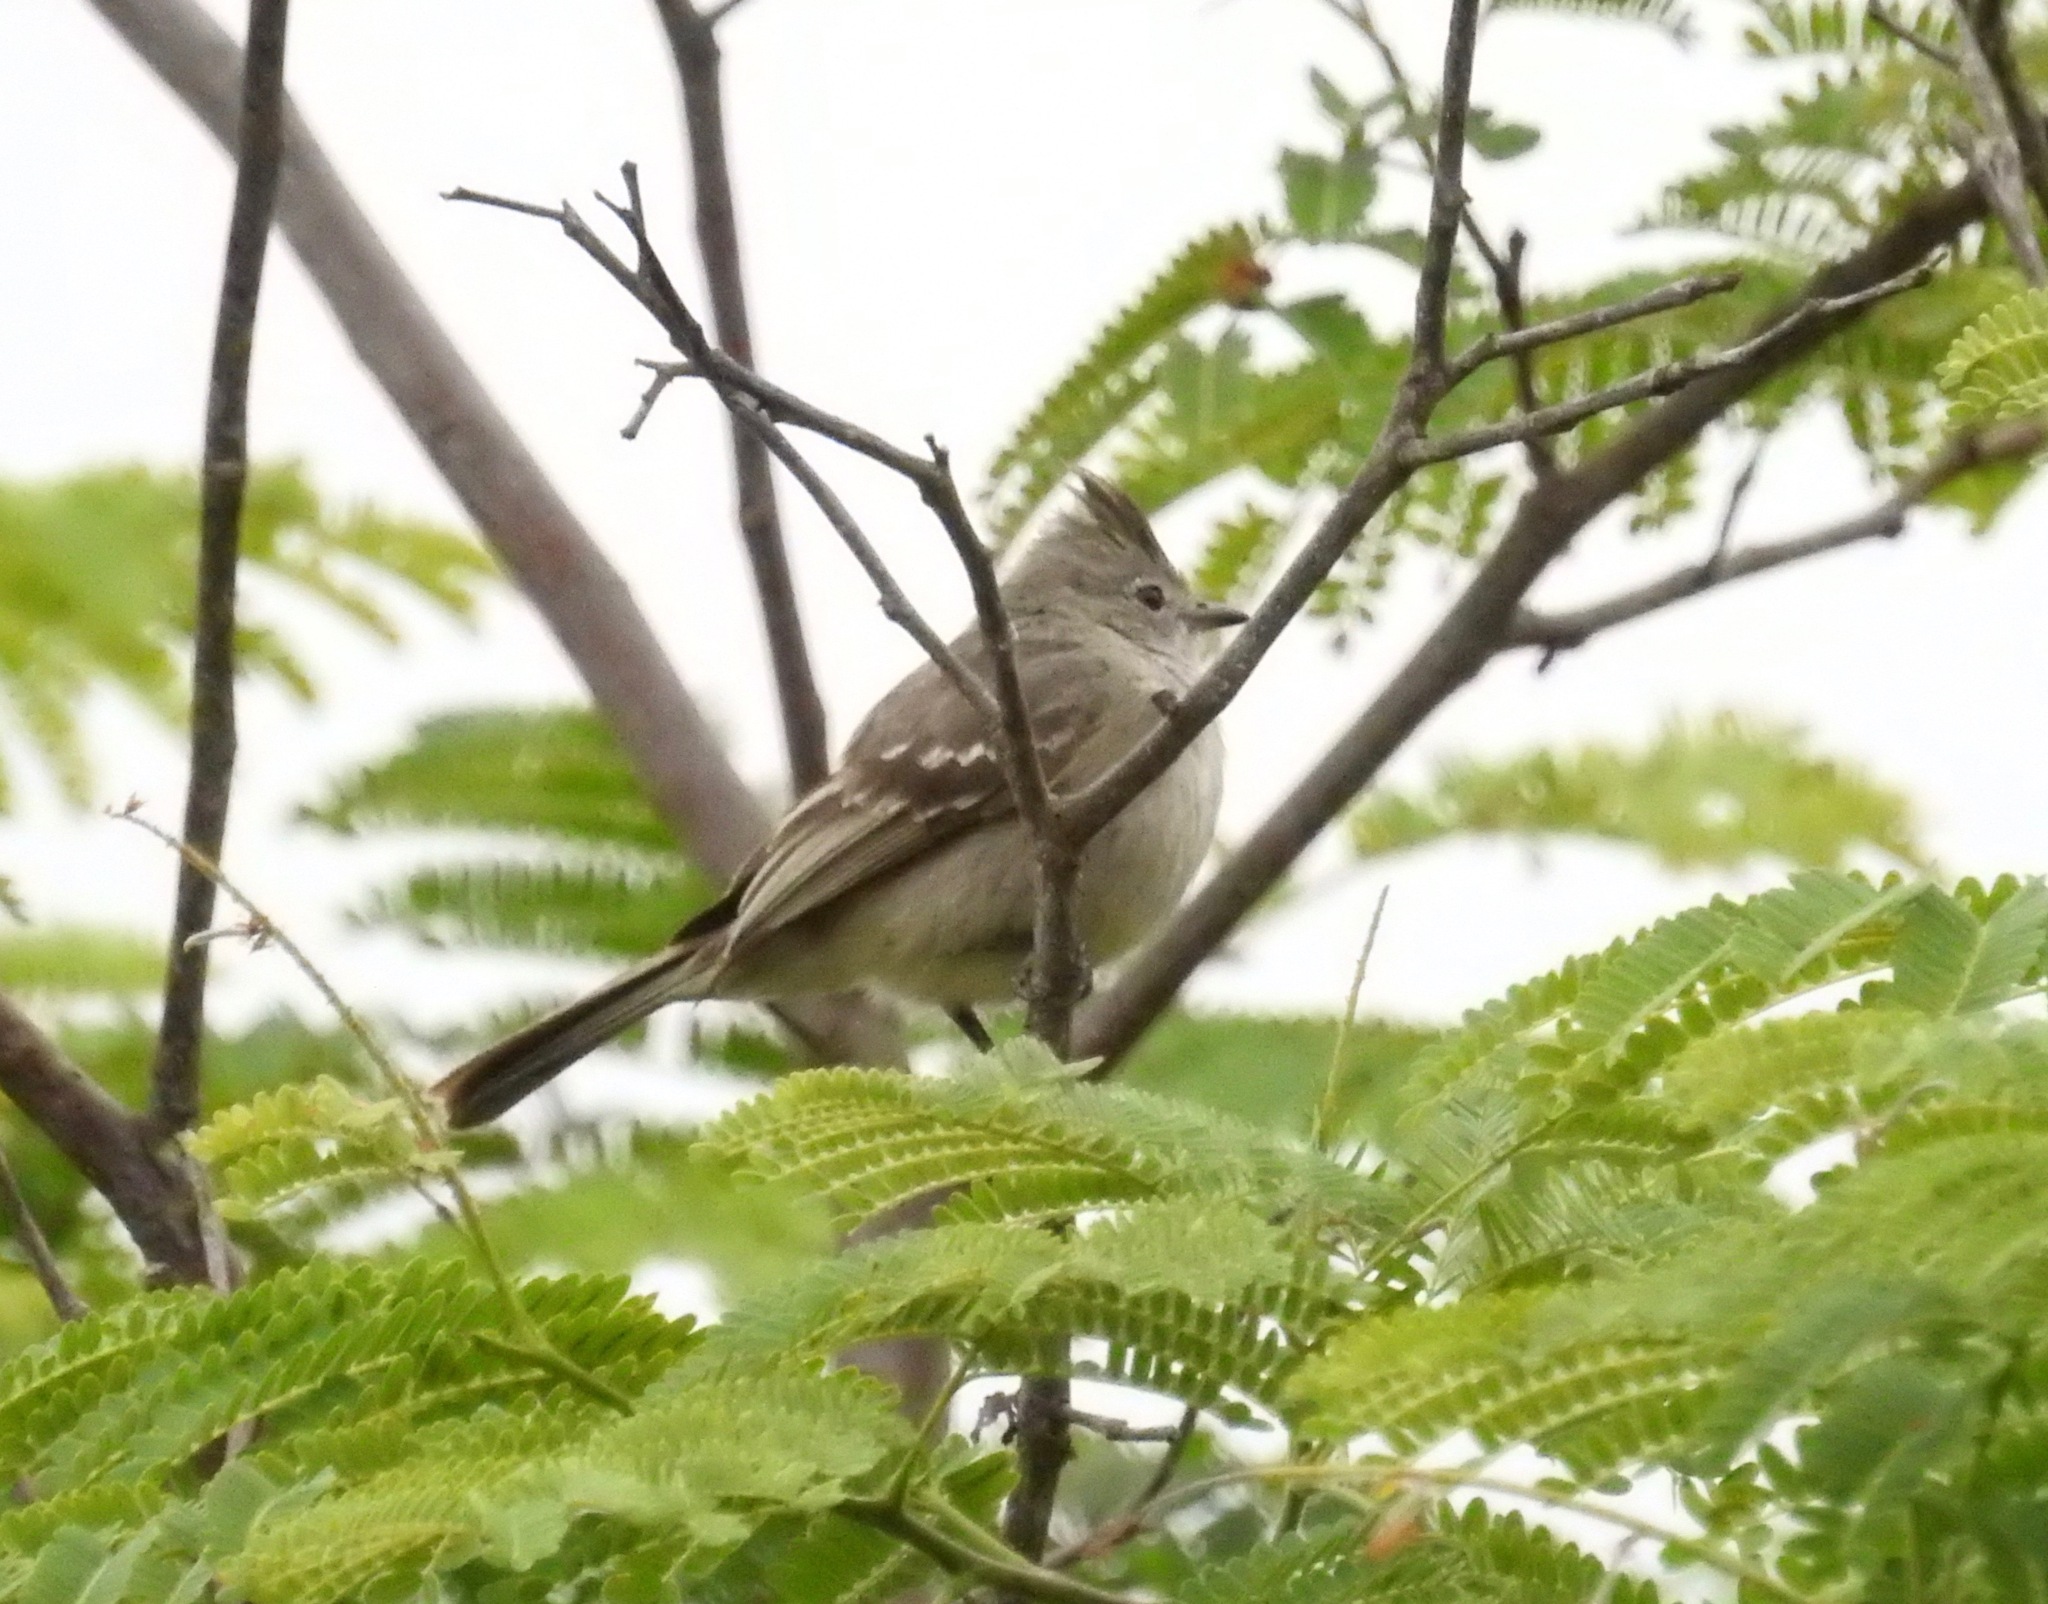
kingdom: Animalia
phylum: Chordata
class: Aves
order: Passeriformes
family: Tyrannidae
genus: Elaenia
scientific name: Elaenia cristata
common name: Plain-crested elaenia
